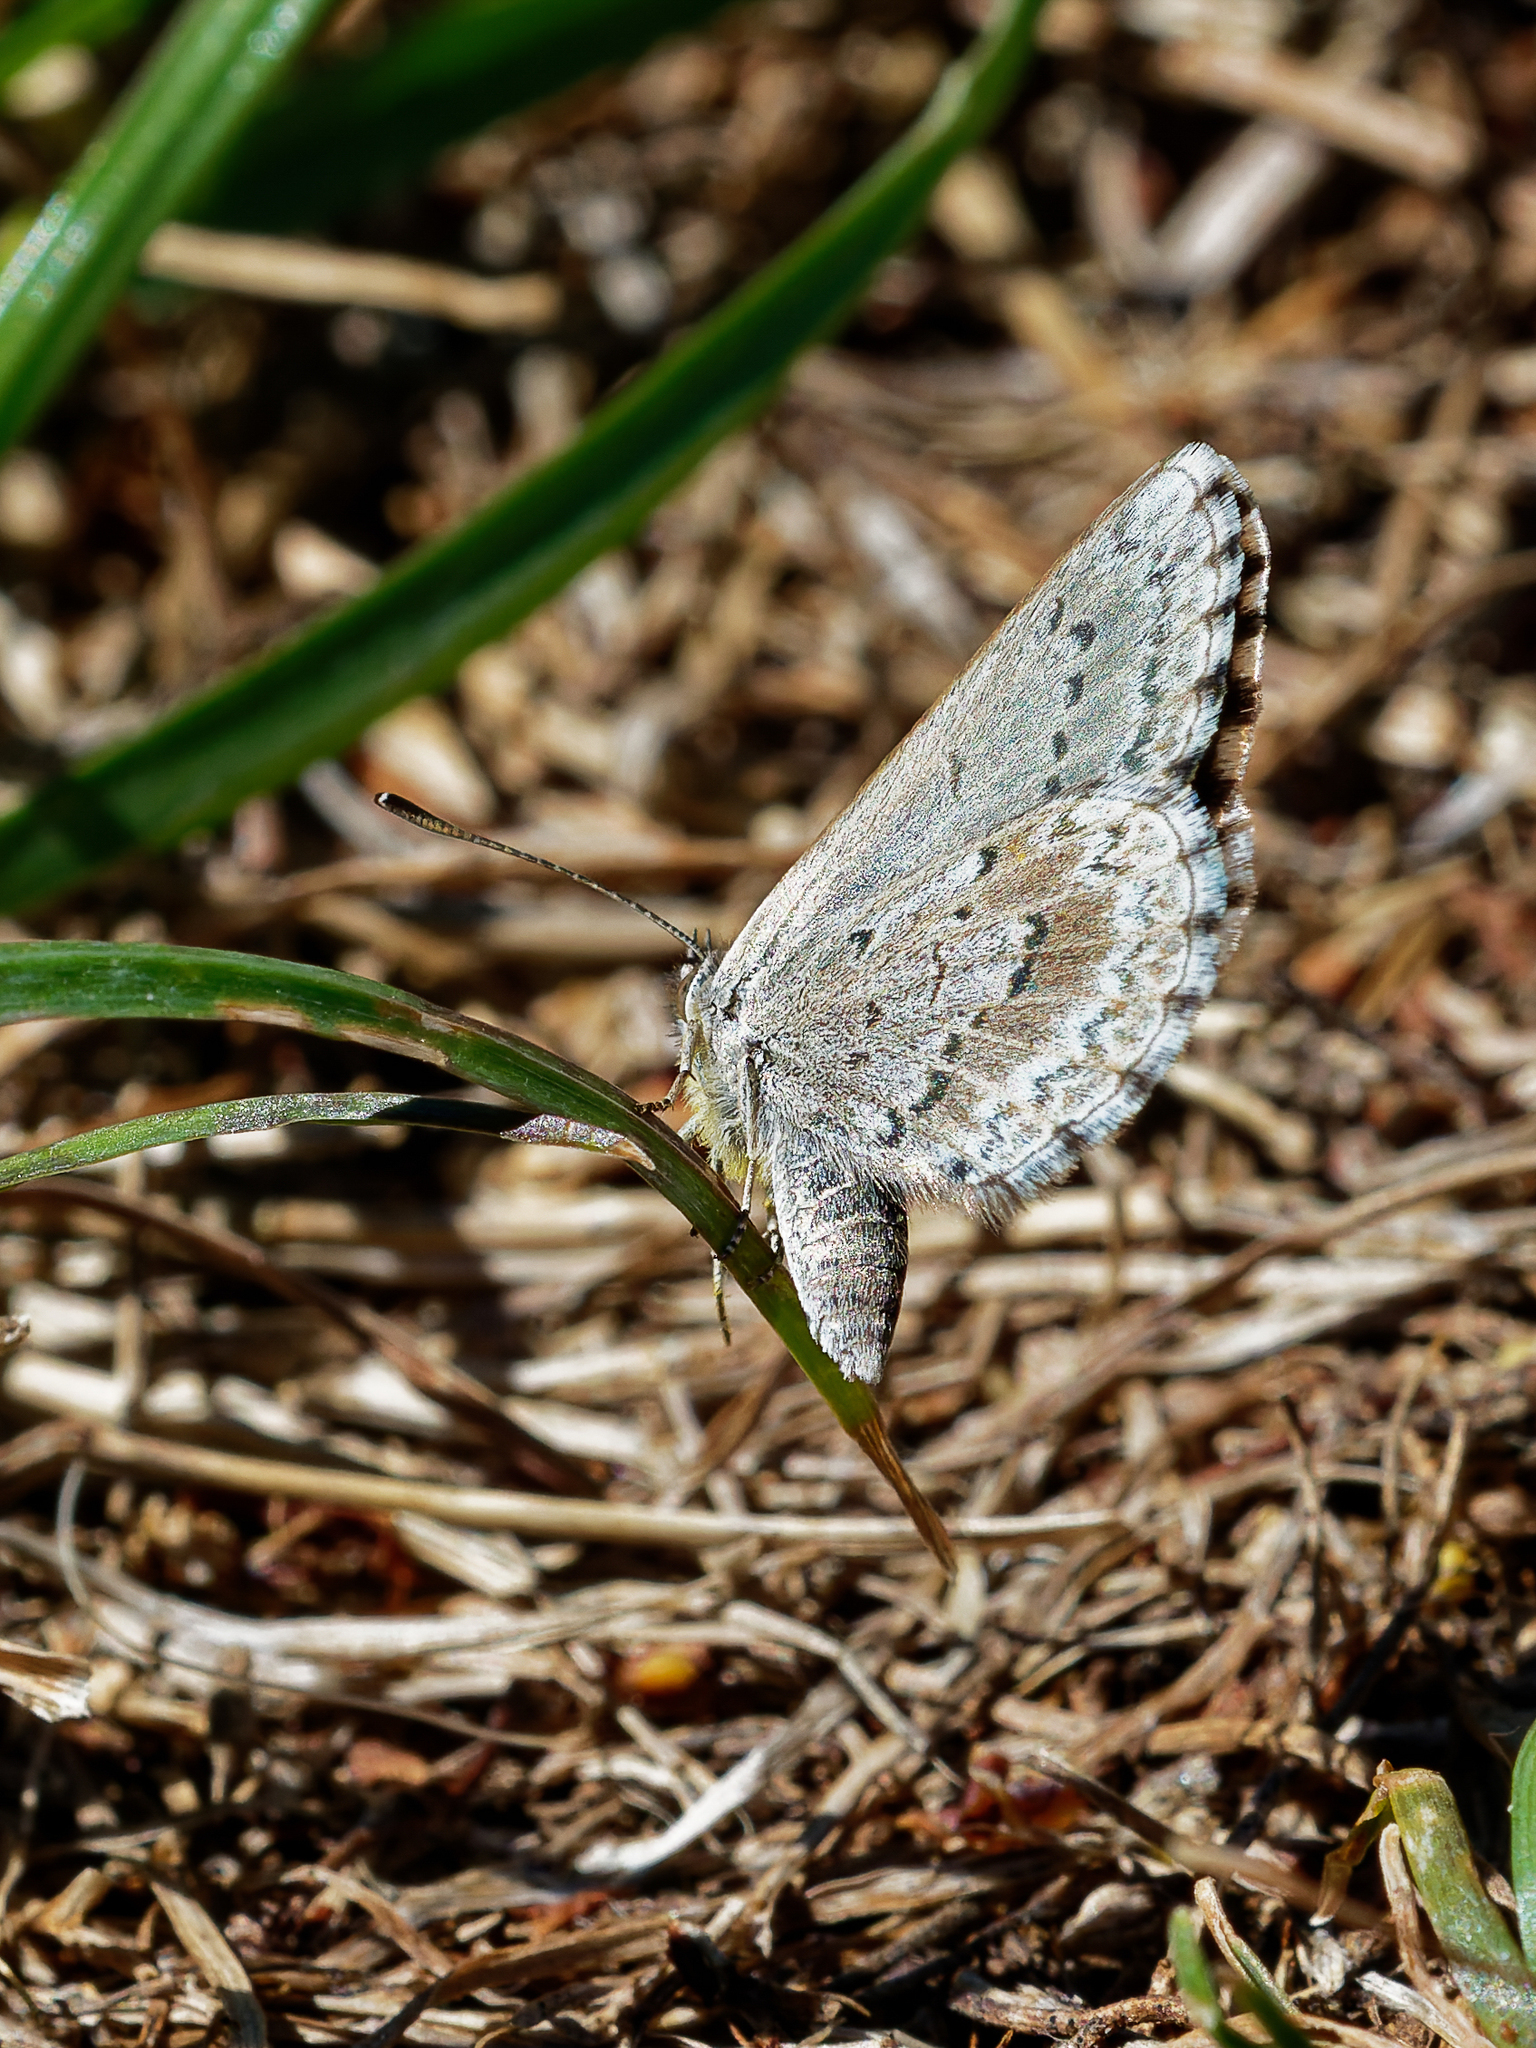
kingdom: Animalia
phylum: Arthropoda
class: Insecta
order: Lepidoptera
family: Lycaenidae
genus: Zizina
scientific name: Zizina oxleyi
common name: Southern blue
